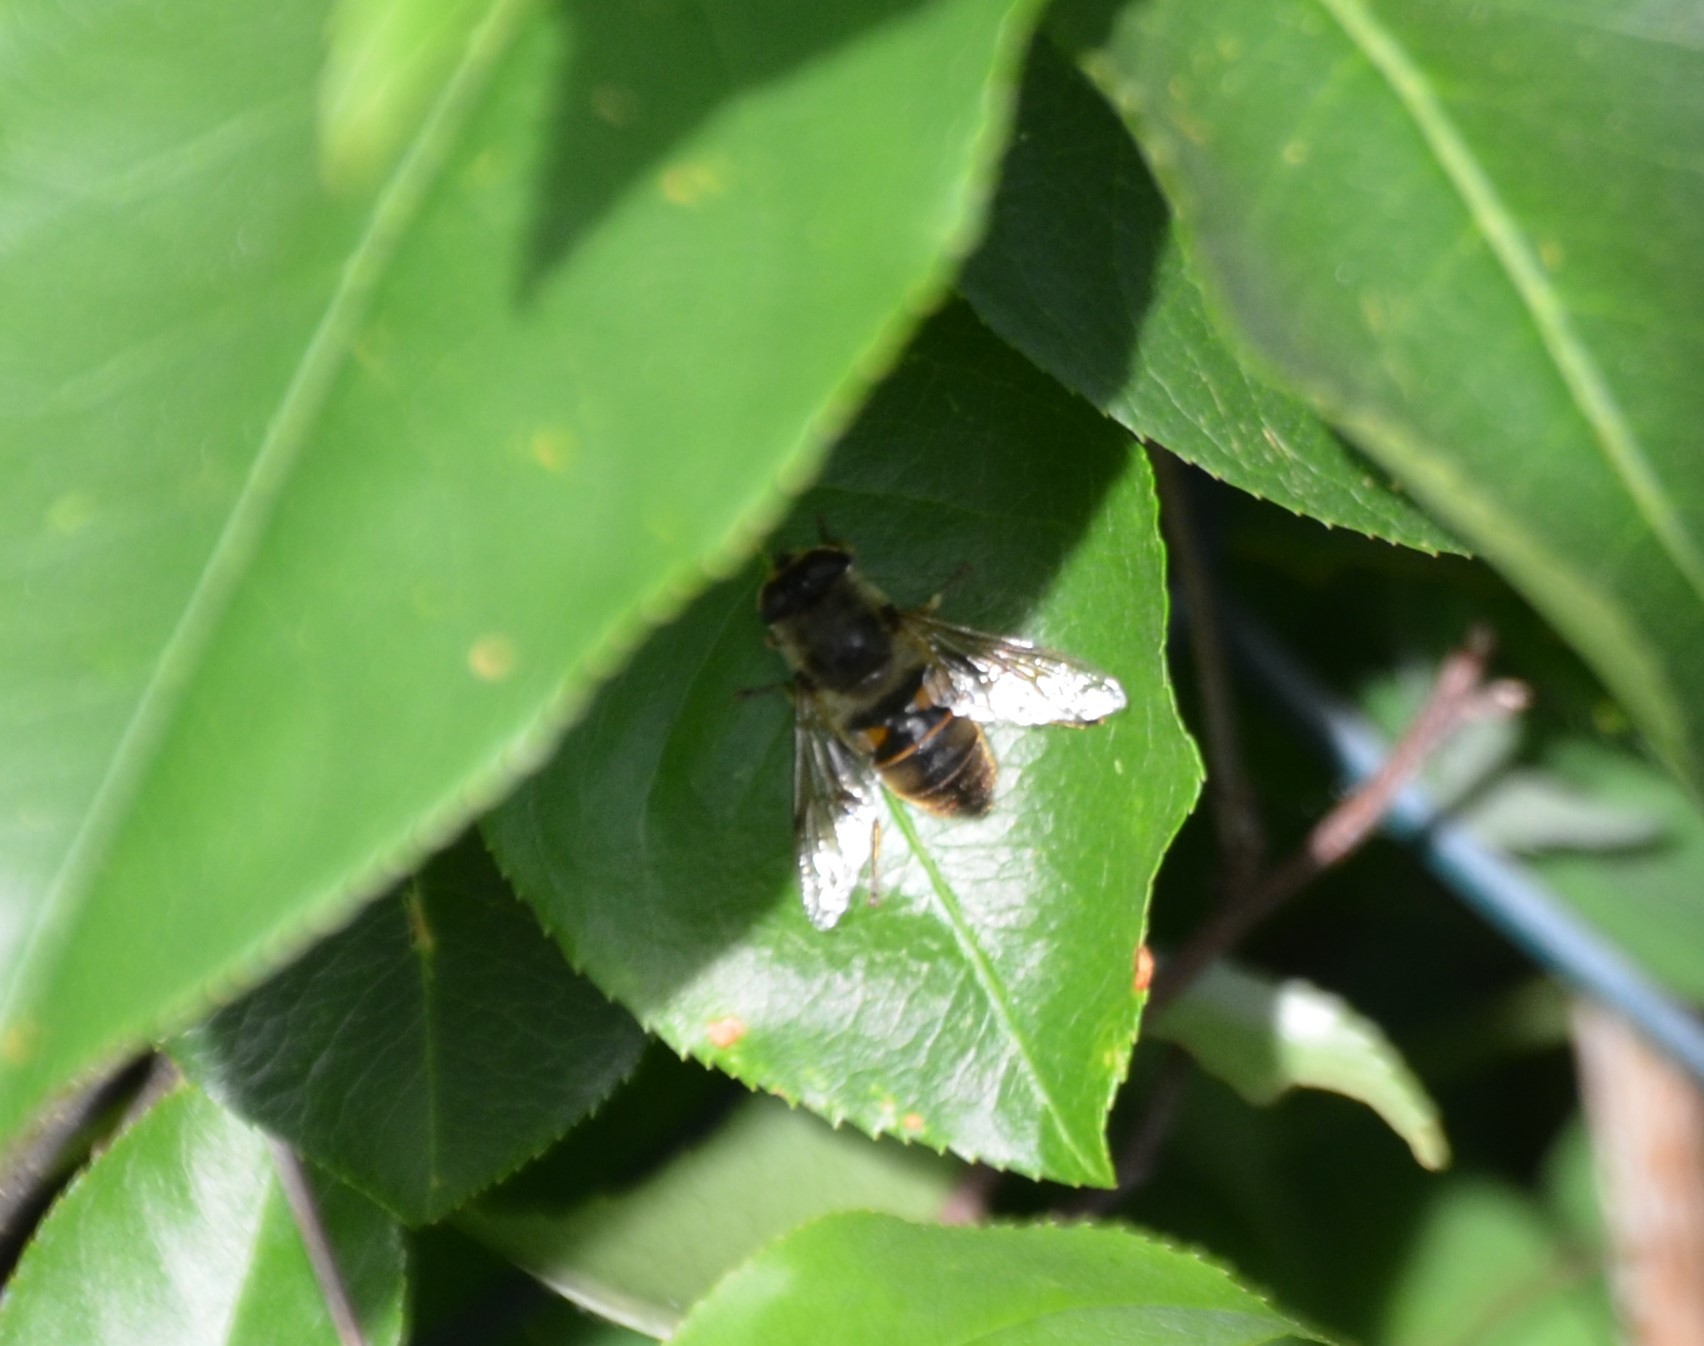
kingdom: Animalia
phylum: Arthropoda
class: Insecta
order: Diptera
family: Syrphidae
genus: Eristalis
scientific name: Eristalis tenax
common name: Drone fly
